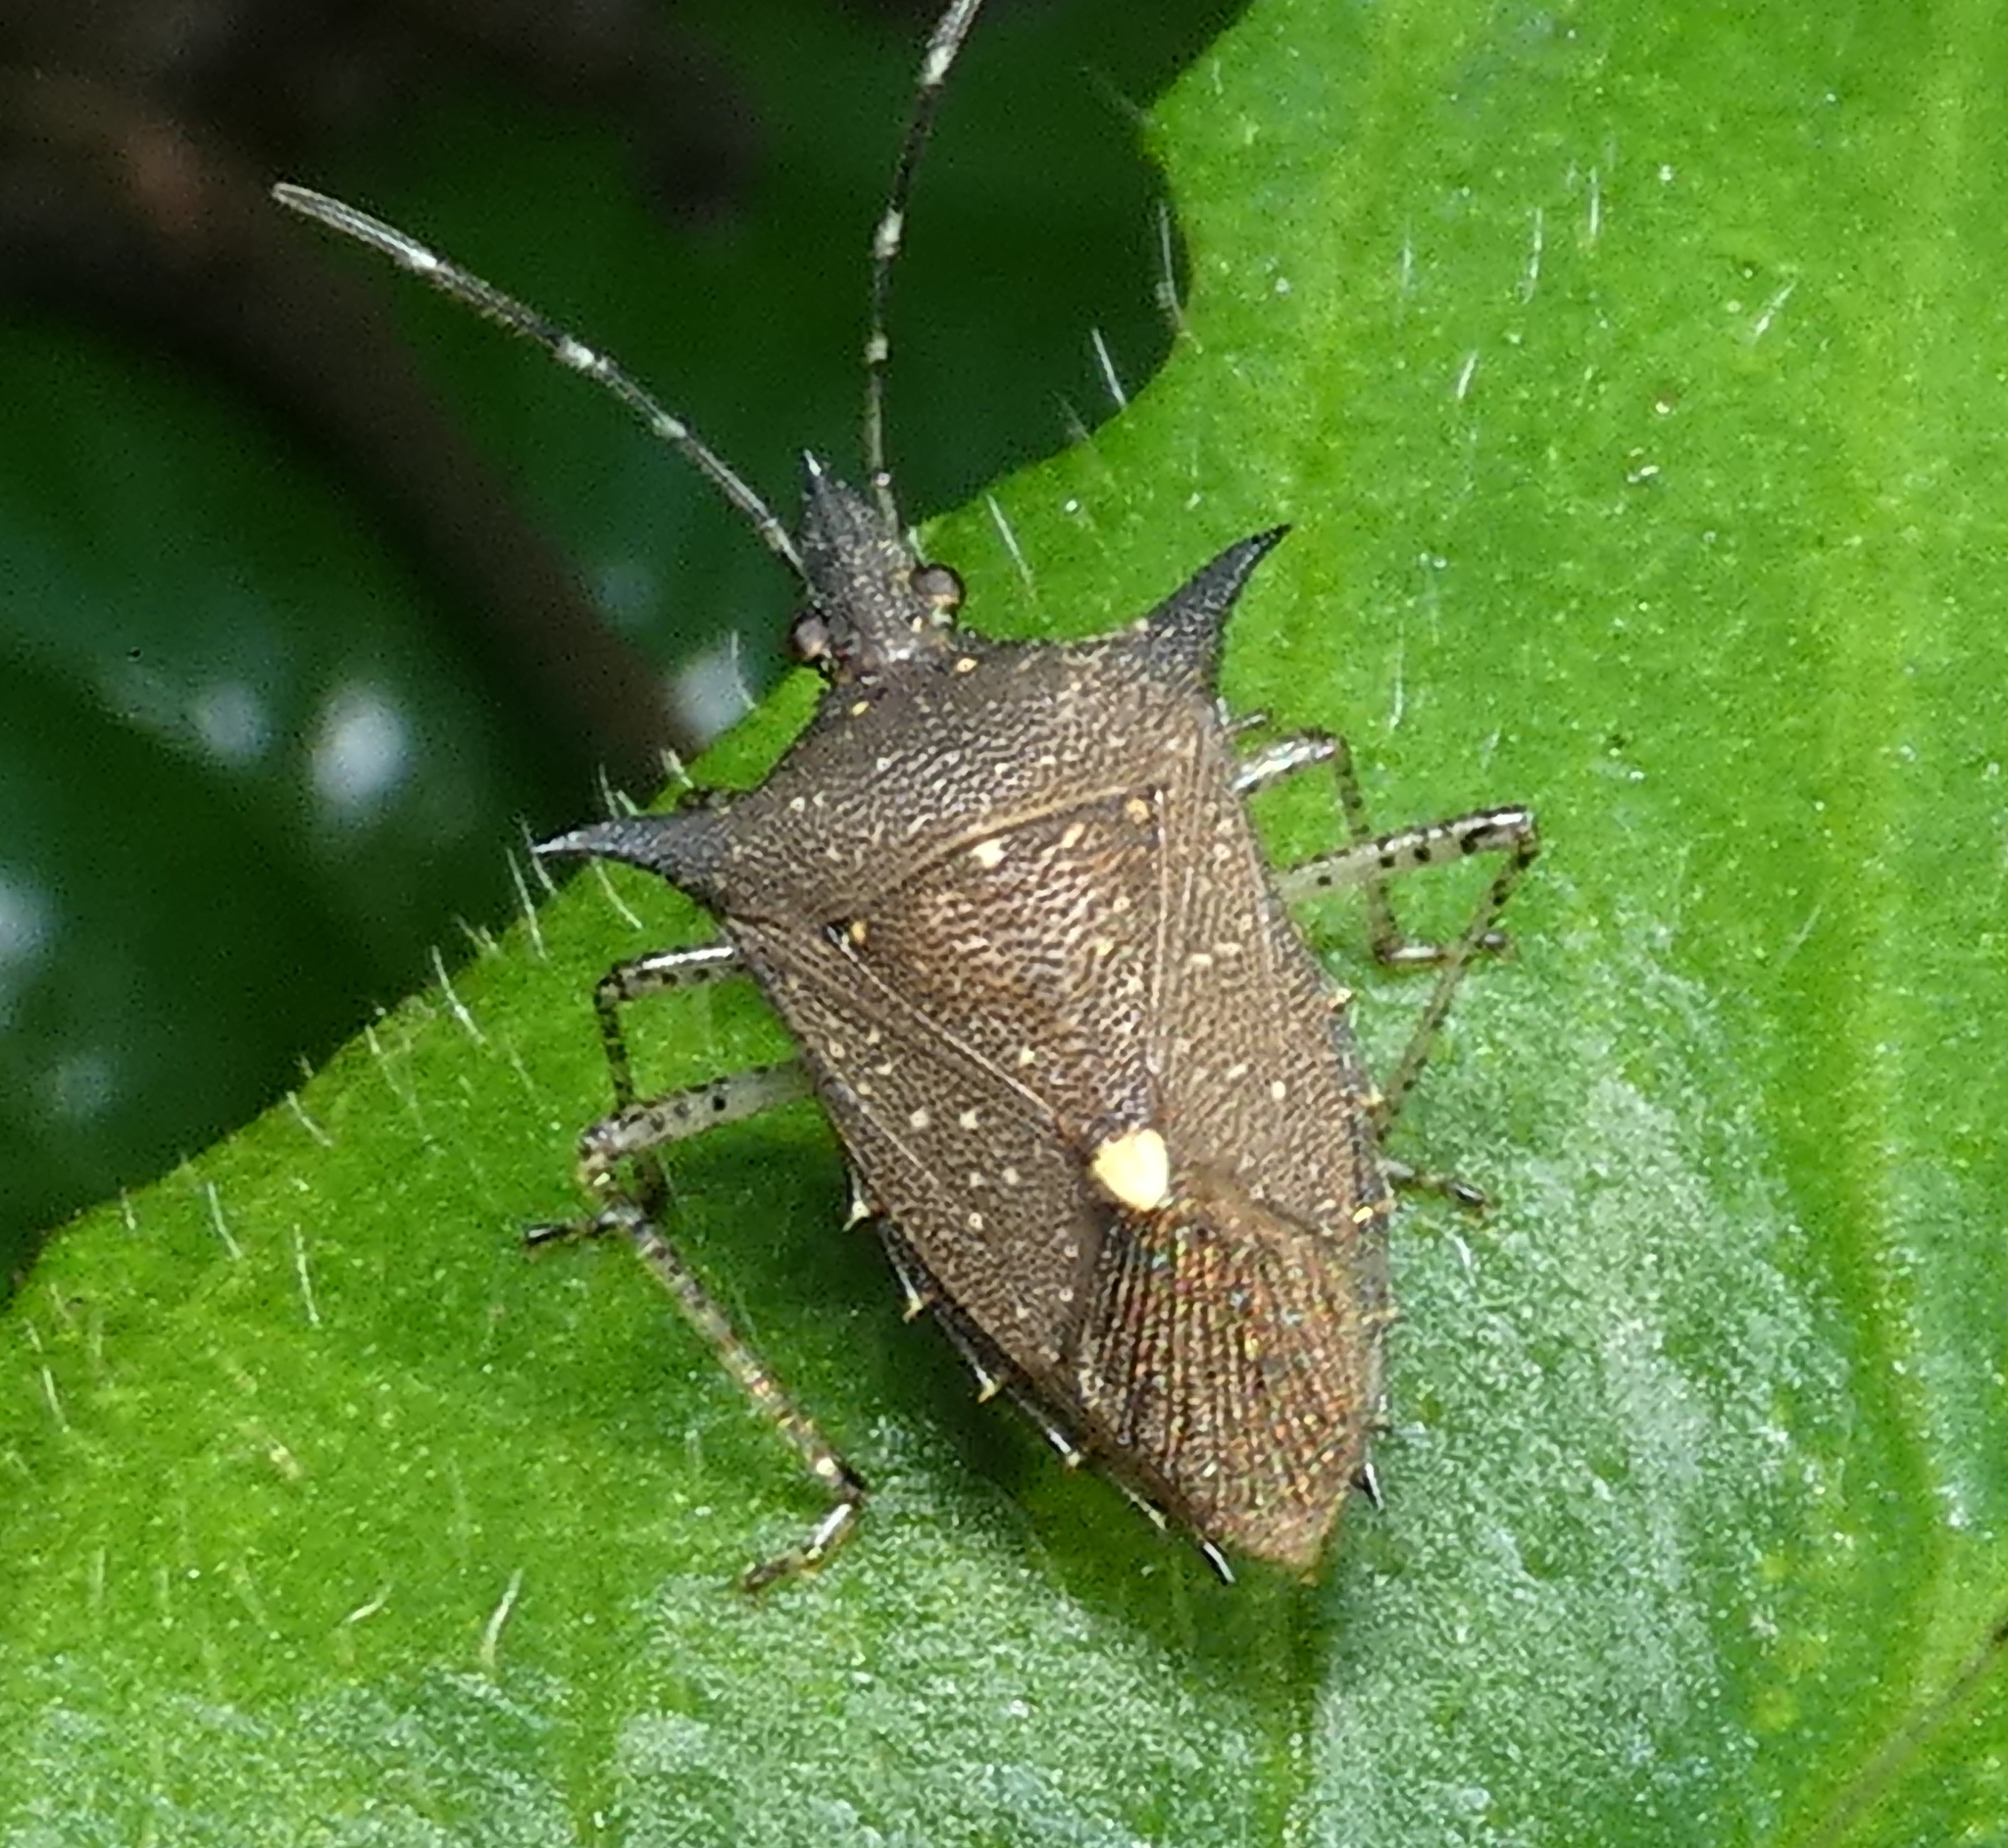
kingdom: Animalia
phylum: Arthropoda
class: Insecta
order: Hemiptera
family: Pentatomidae
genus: Proxys
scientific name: Proxys albopunctulatus
